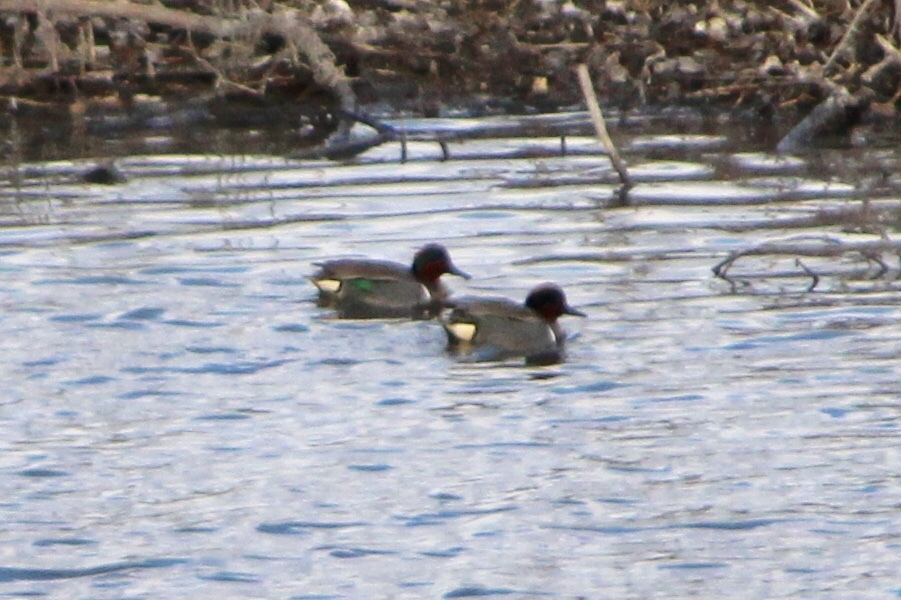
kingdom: Animalia
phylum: Chordata
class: Aves
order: Anseriformes
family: Anatidae
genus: Anas
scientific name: Anas crecca
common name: Eurasian teal
